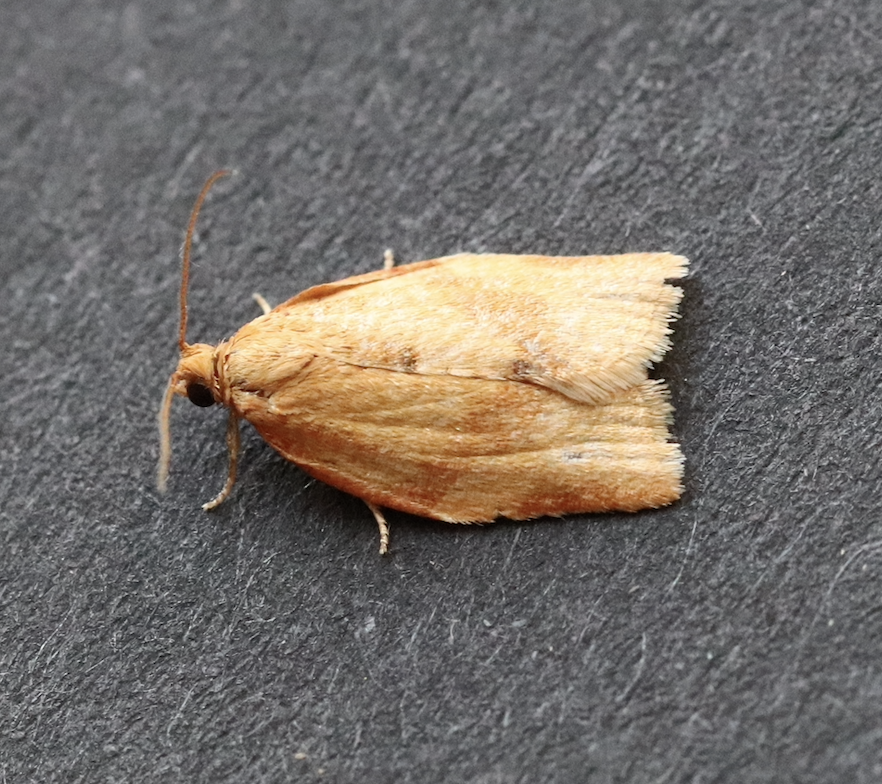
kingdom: Animalia
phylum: Arthropoda
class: Insecta
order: Lepidoptera
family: Tortricidae
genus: Clepsis
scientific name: Clepsis consimilana
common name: Privet tortrix
